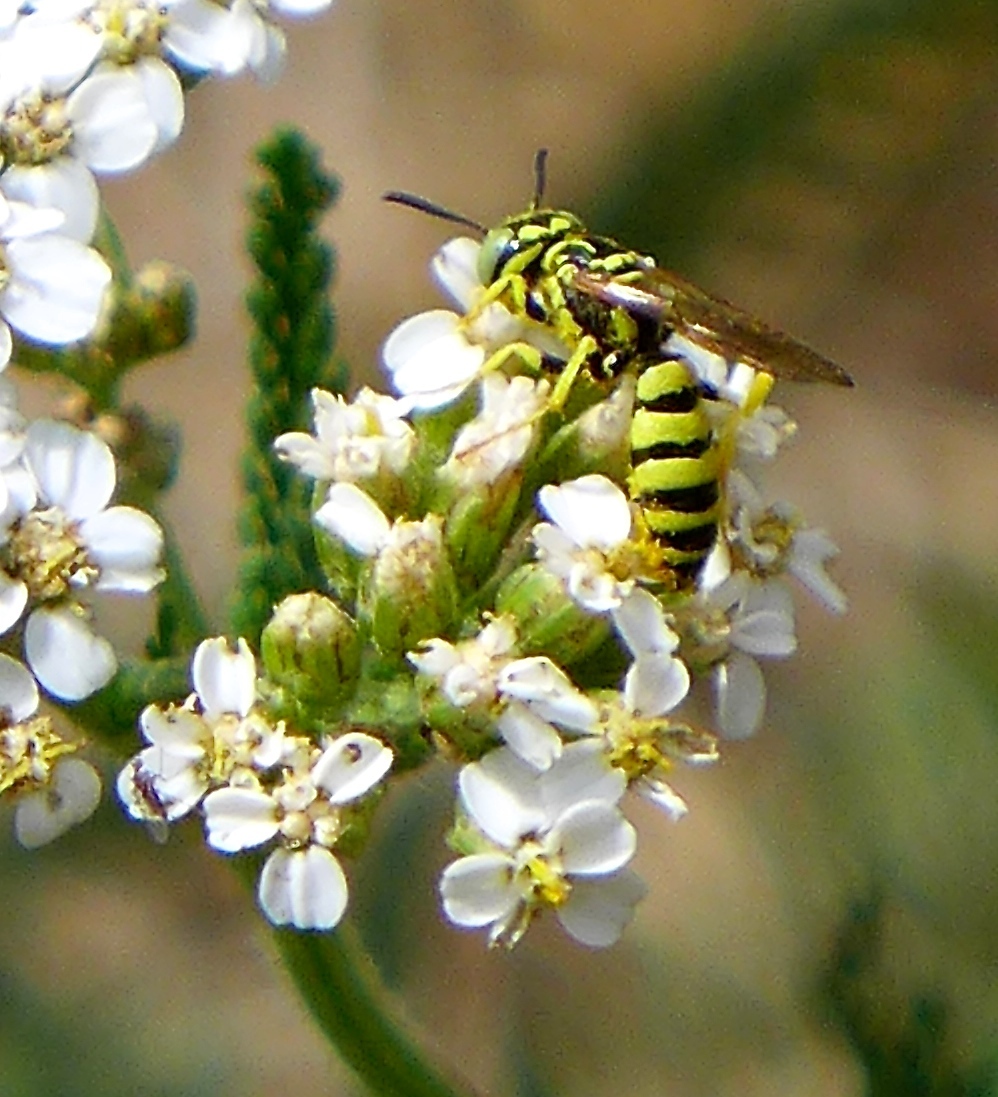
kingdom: Animalia
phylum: Arthropoda
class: Insecta
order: Hymenoptera
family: Crabronidae
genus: Philanthus
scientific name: Philanthus multimaculatus
